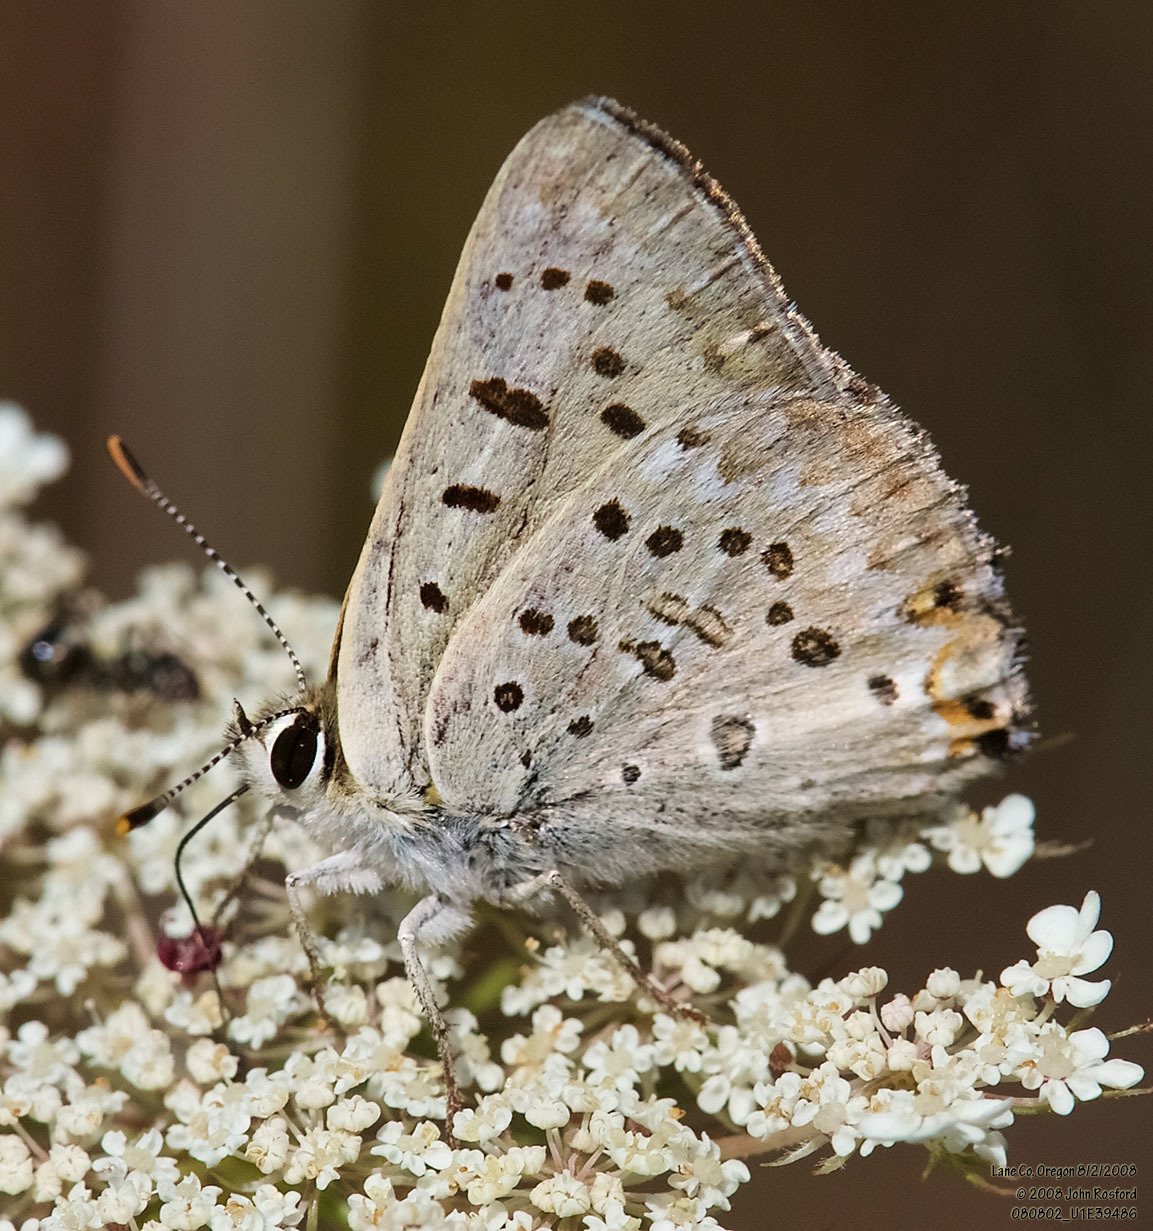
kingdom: Animalia
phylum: Arthropoda
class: Insecta
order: Lepidoptera
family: Lycaenidae
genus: Tharsalea
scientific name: Tharsalea xanthoides
